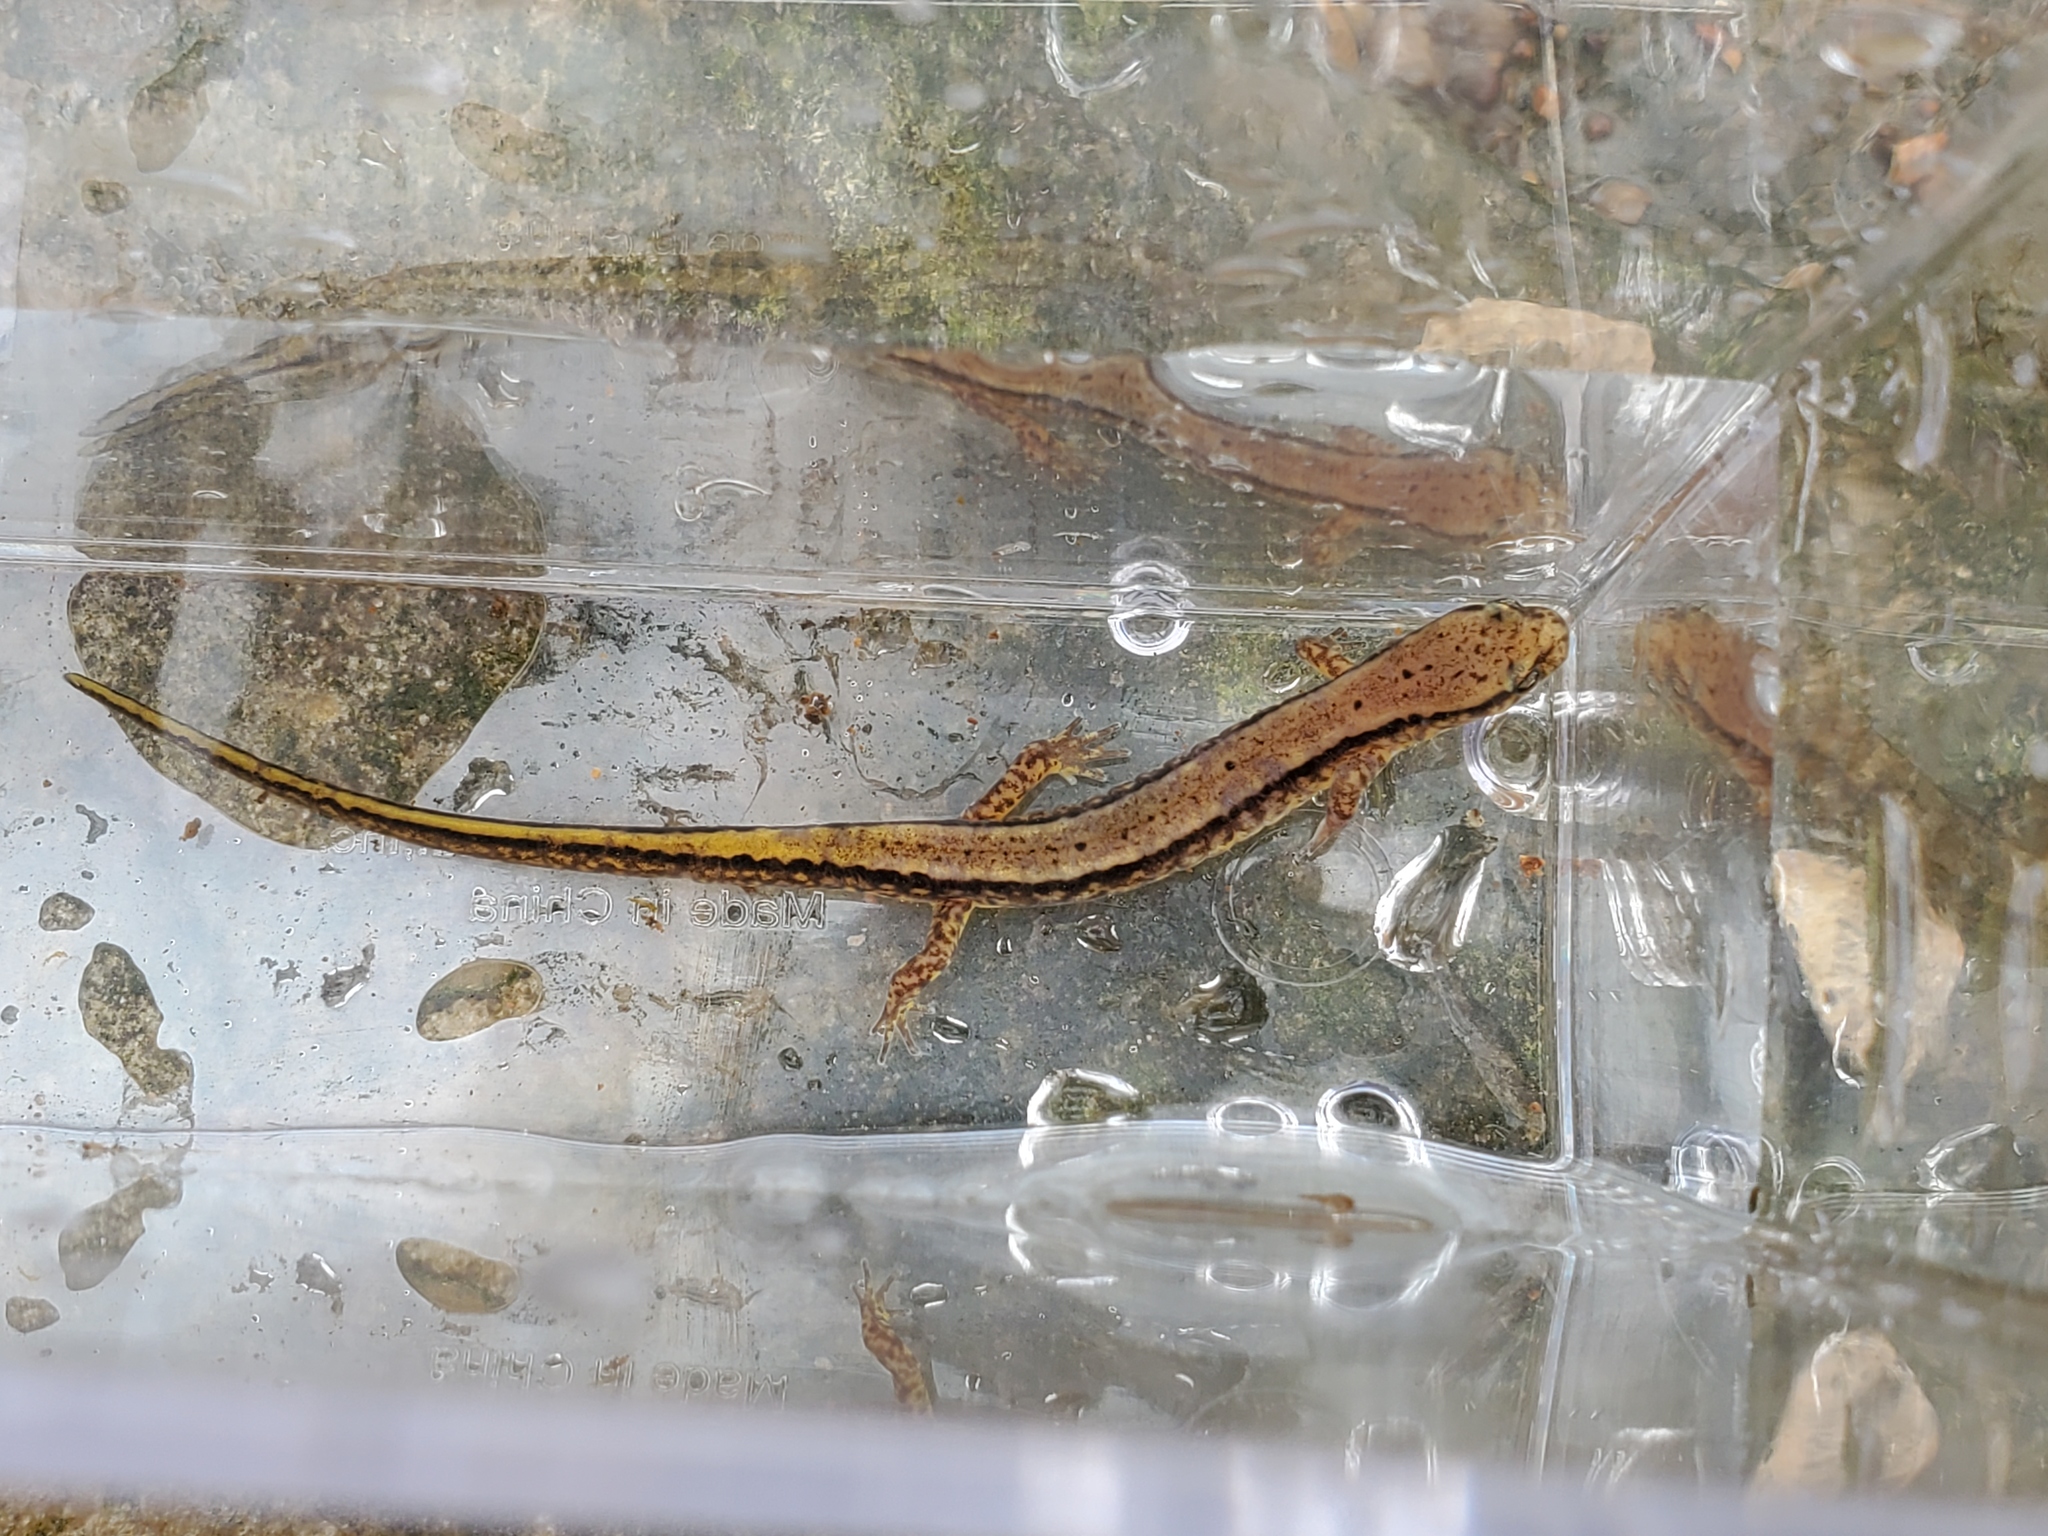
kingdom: Animalia
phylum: Chordata
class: Amphibia
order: Caudata
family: Plethodontidae
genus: Eurycea
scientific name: Eurycea cirrigera
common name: Southern two-lined salamander
